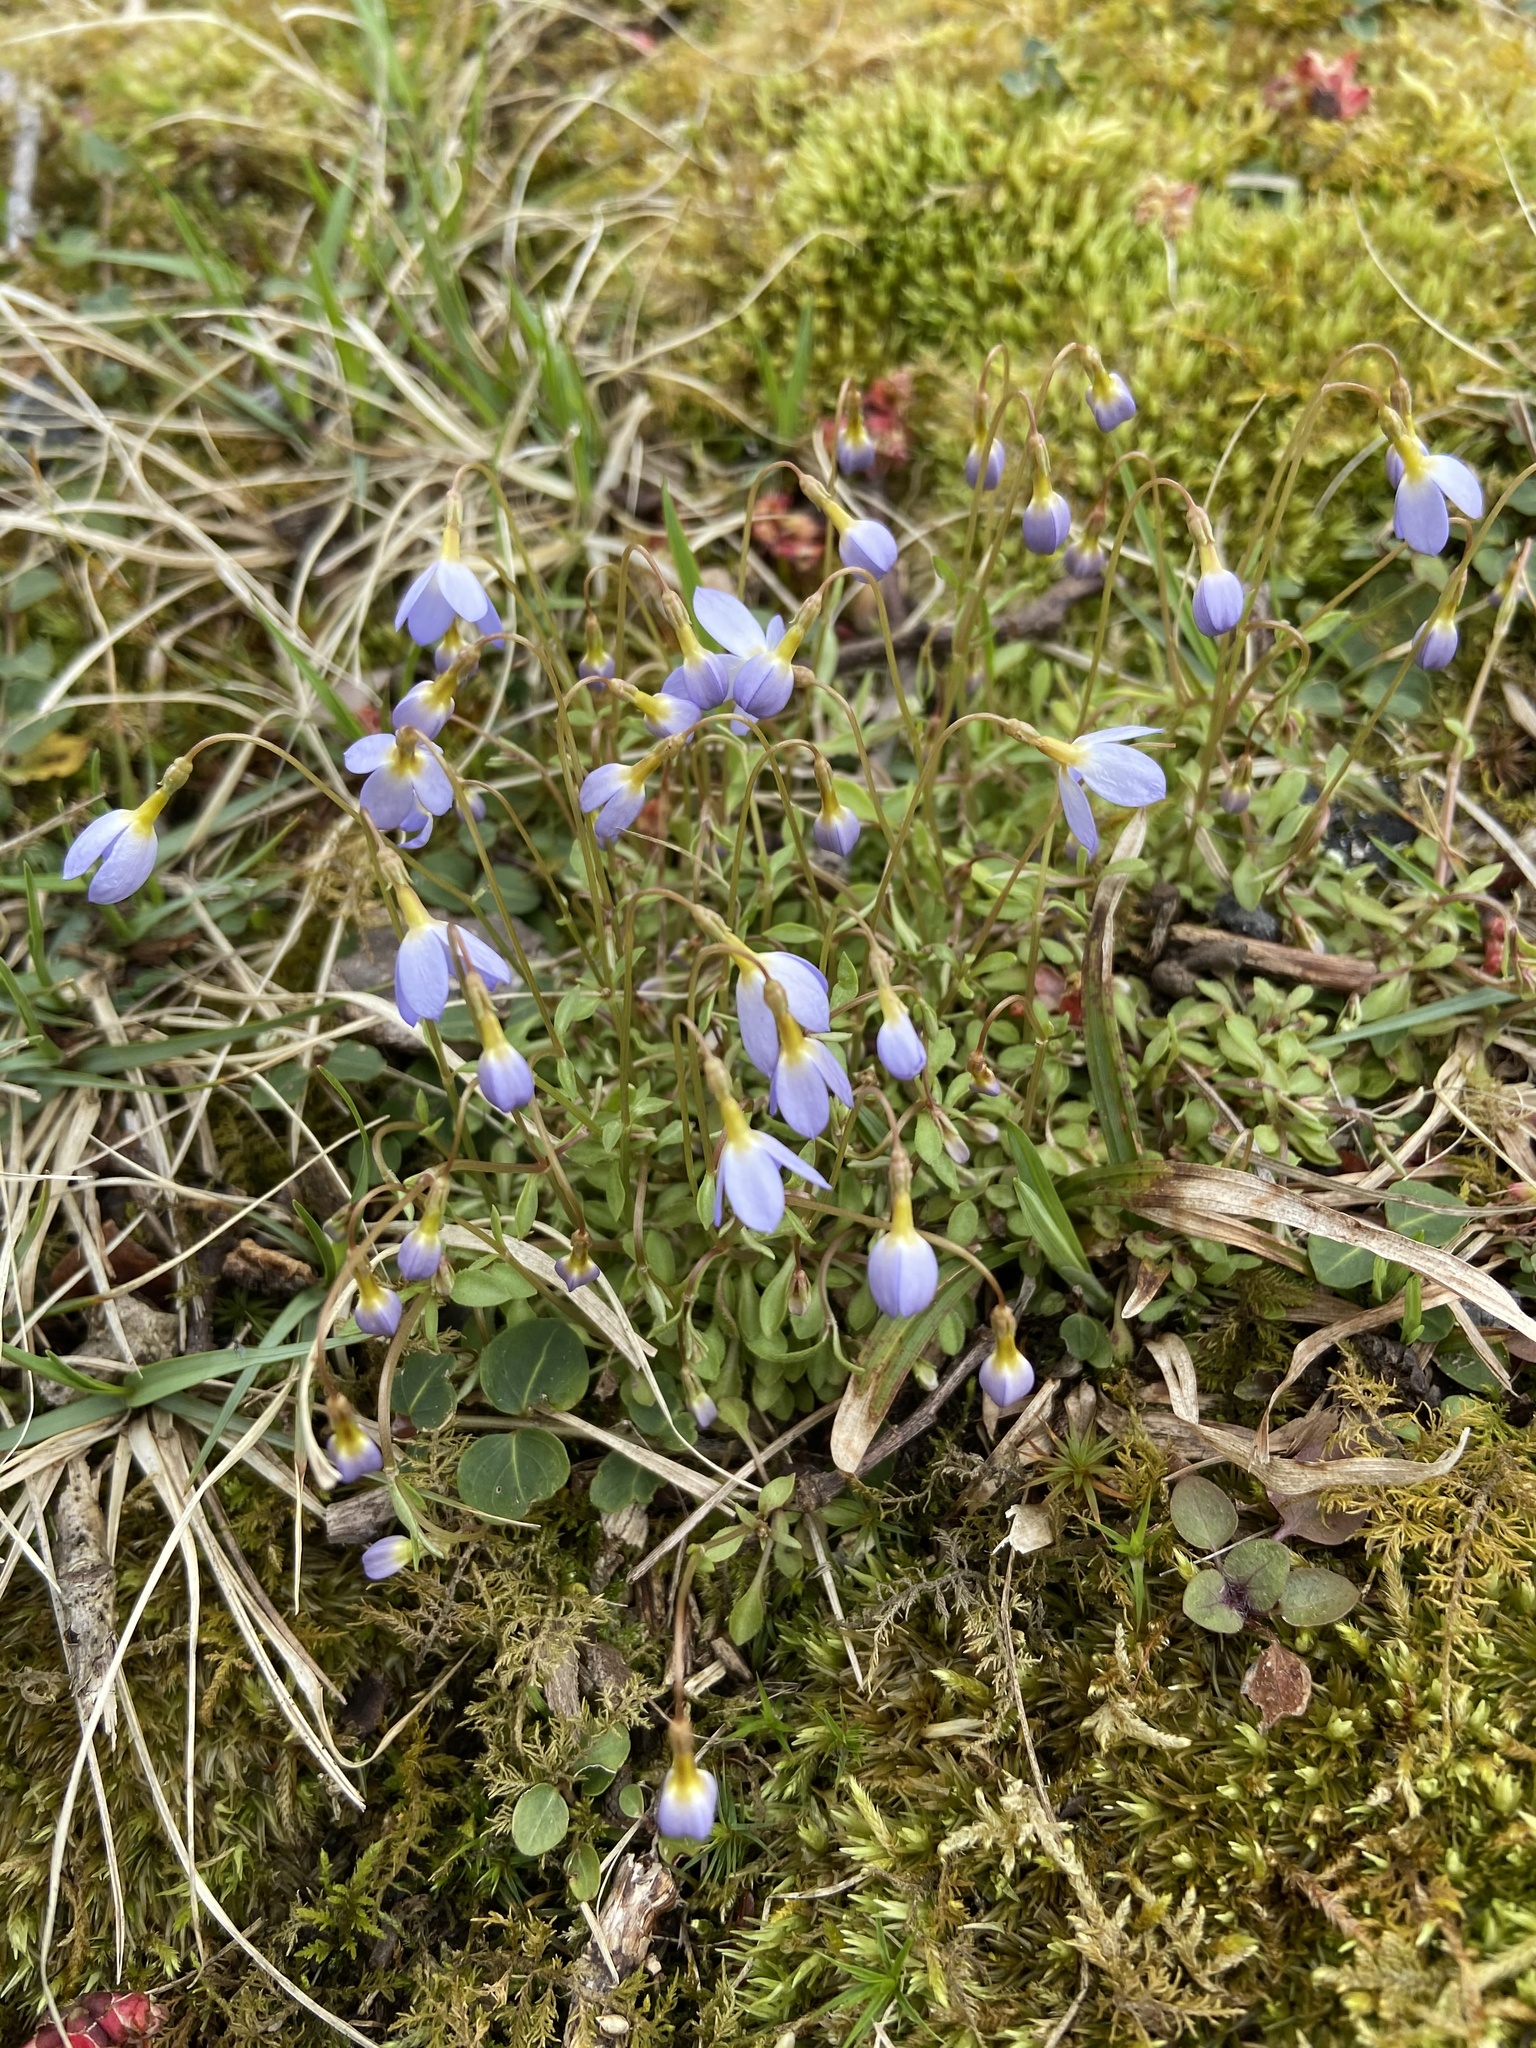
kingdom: Plantae
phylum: Tracheophyta
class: Magnoliopsida
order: Gentianales
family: Rubiaceae
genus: Houstonia
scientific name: Houstonia caerulea
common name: Bluets
